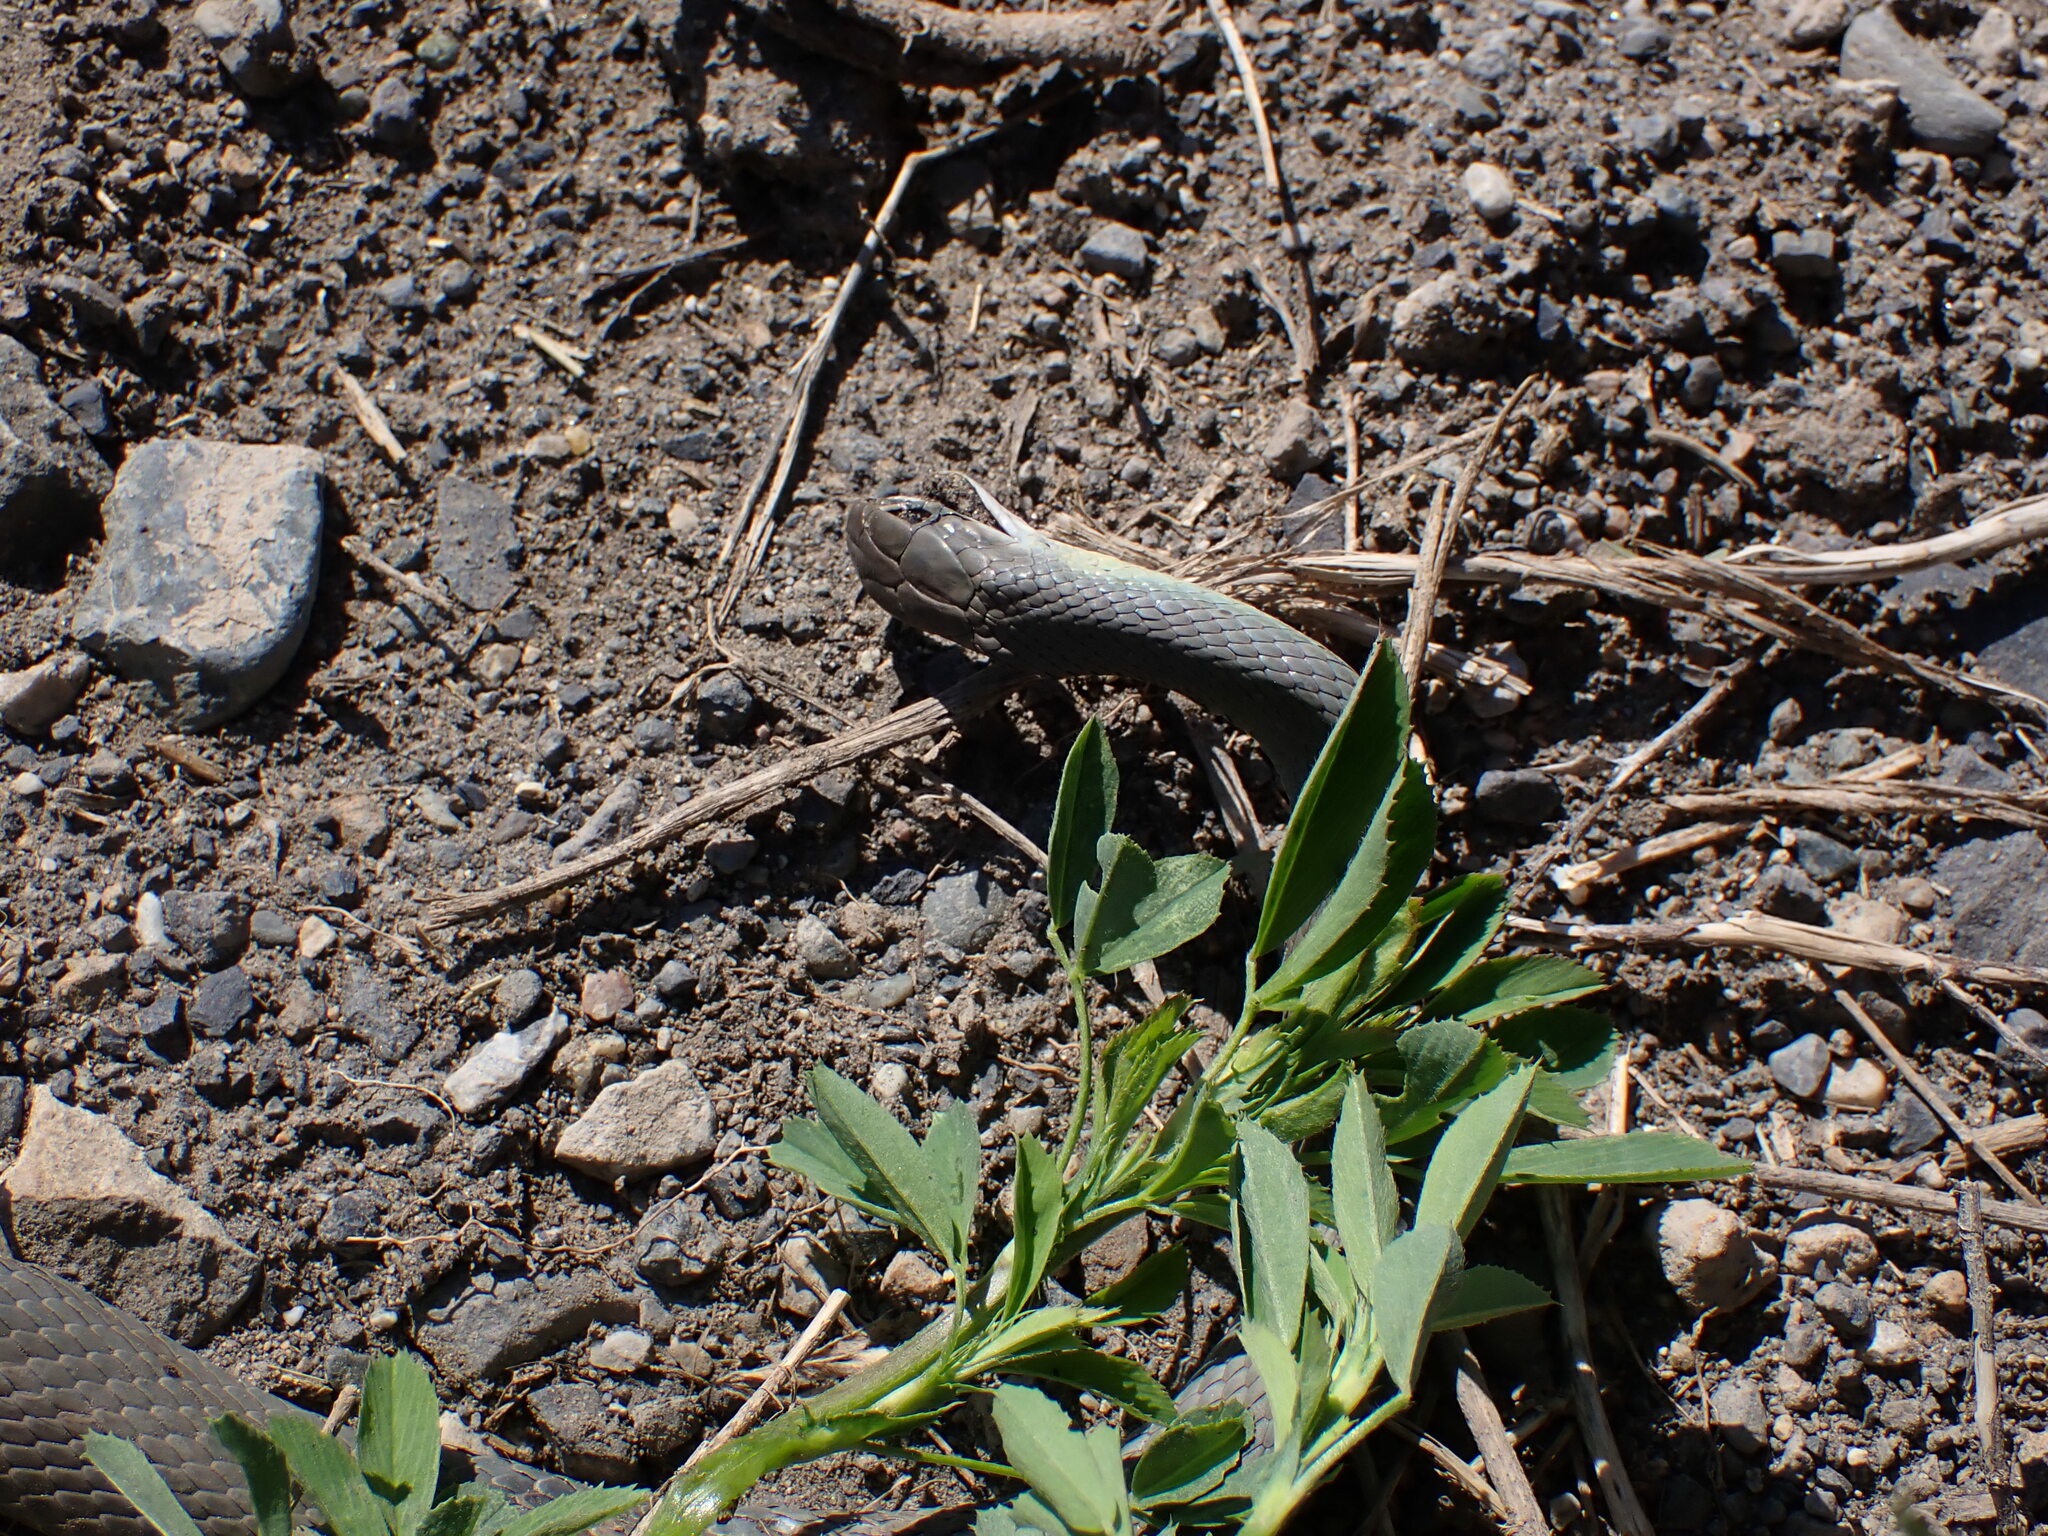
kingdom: Animalia
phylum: Chordata
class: Squamata
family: Colubridae
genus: Coluber
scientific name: Coluber constrictor
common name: Eastern racer
